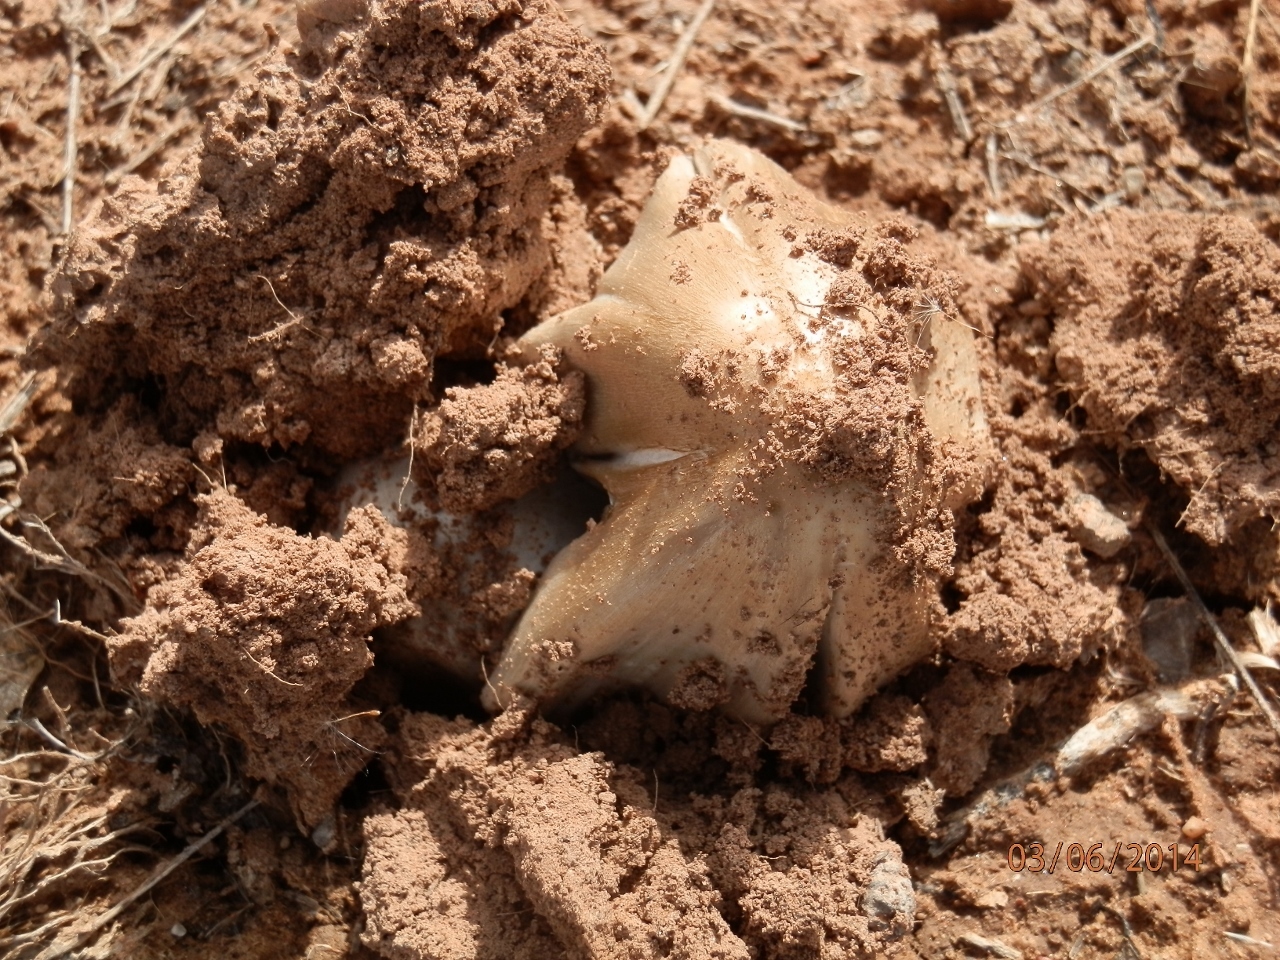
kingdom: Fungi
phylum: Basidiomycota
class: Agaricomycetes
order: Agaricales
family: Psathyrellaceae
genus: Coprinopsis
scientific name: Coprinopsis atramentaria
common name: Common ink-cap
